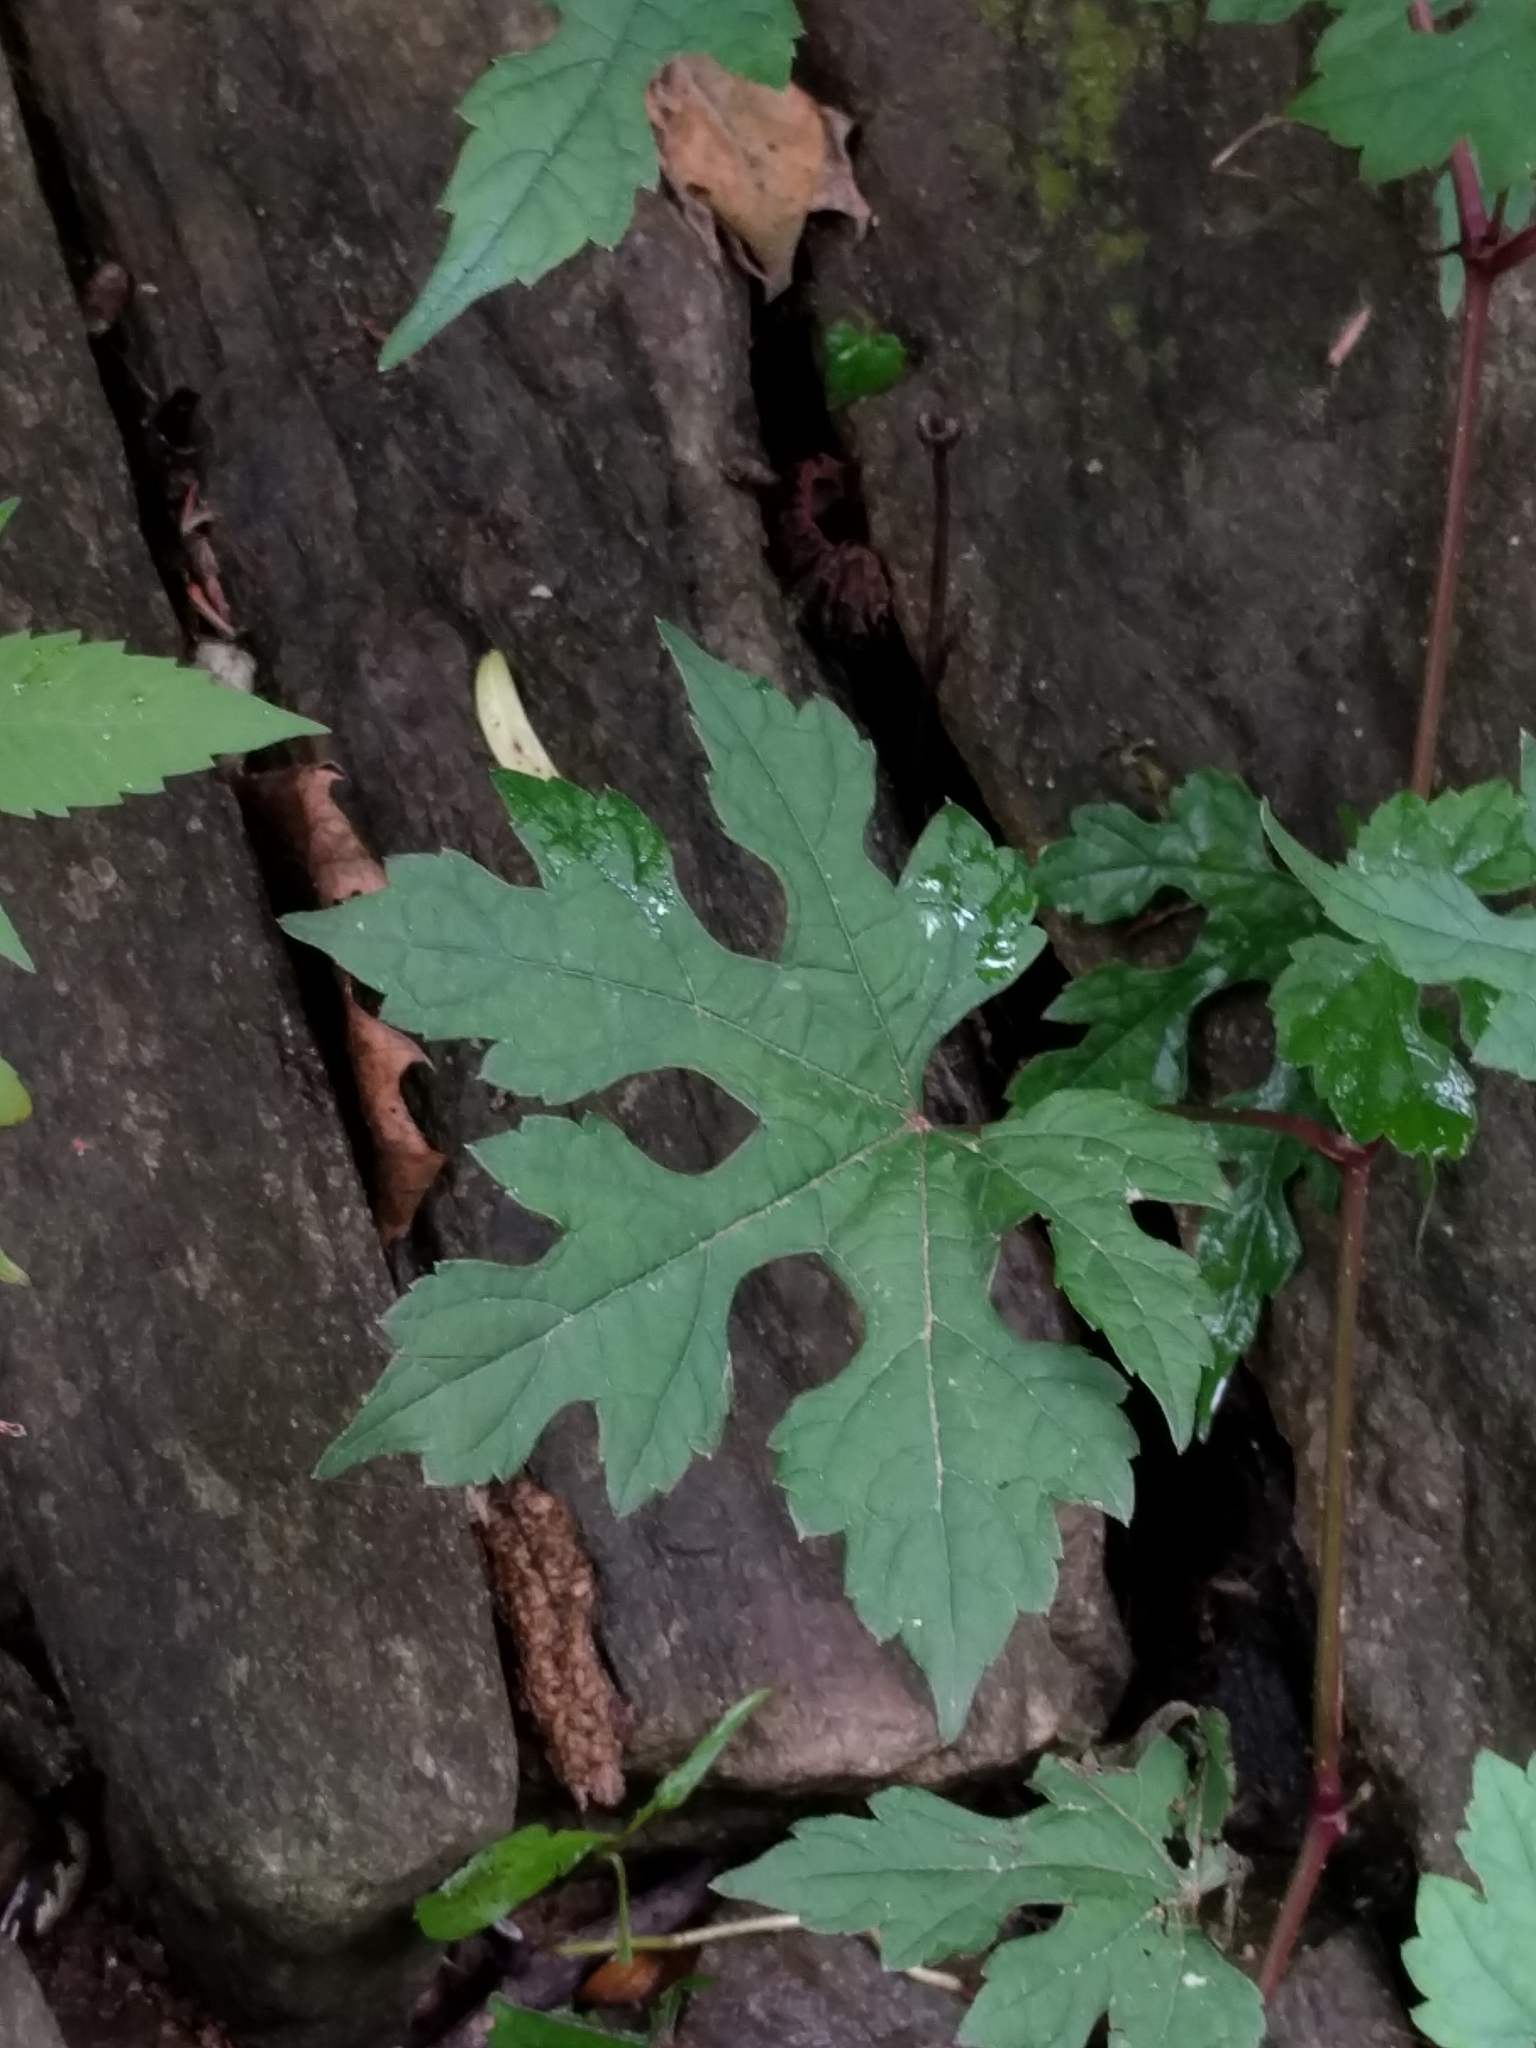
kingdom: Plantae
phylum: Tracheophyta
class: Magnoliopsida
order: Vitales
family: Vitaceae
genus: Ampelopsis
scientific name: Ampelopsis glandulosa
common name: Amur peppervine
